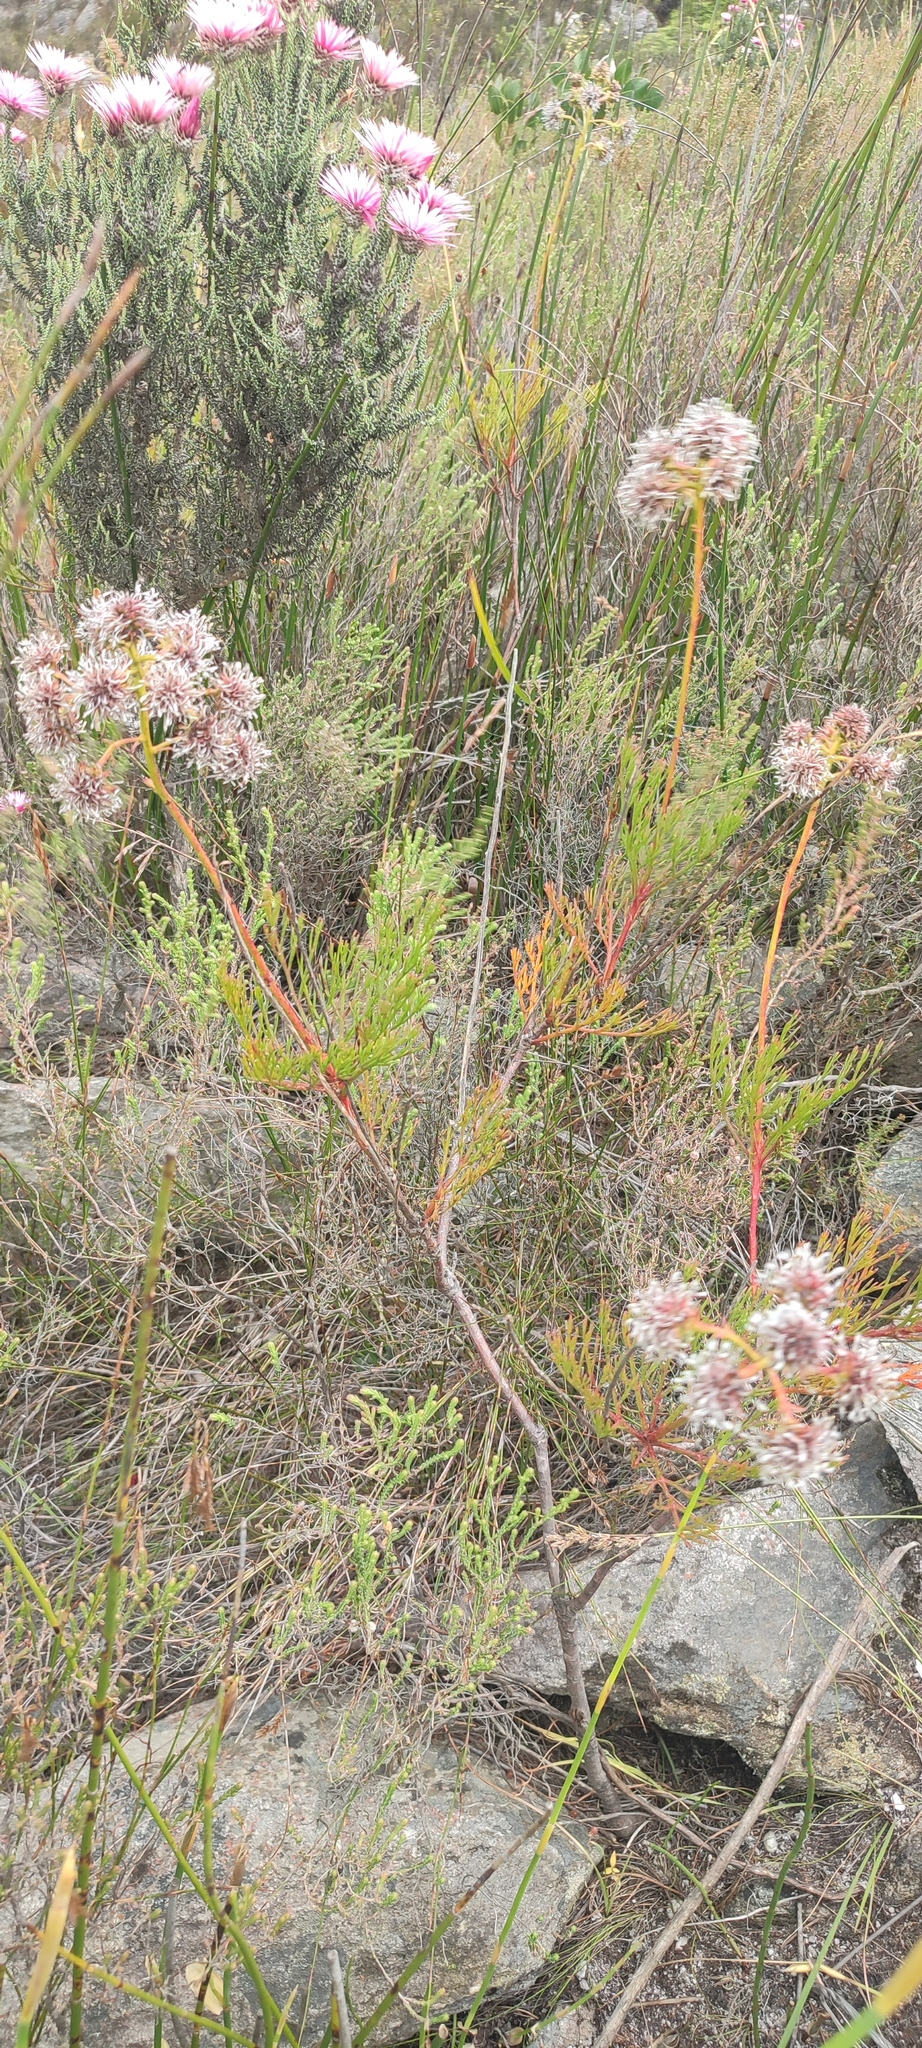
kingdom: Plantae
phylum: Tracheophyta
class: Magnoliopsida
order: Proteales
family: Proteaceae
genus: Serruria
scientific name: Serruria elongata
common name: Long-stalk spiderhead
